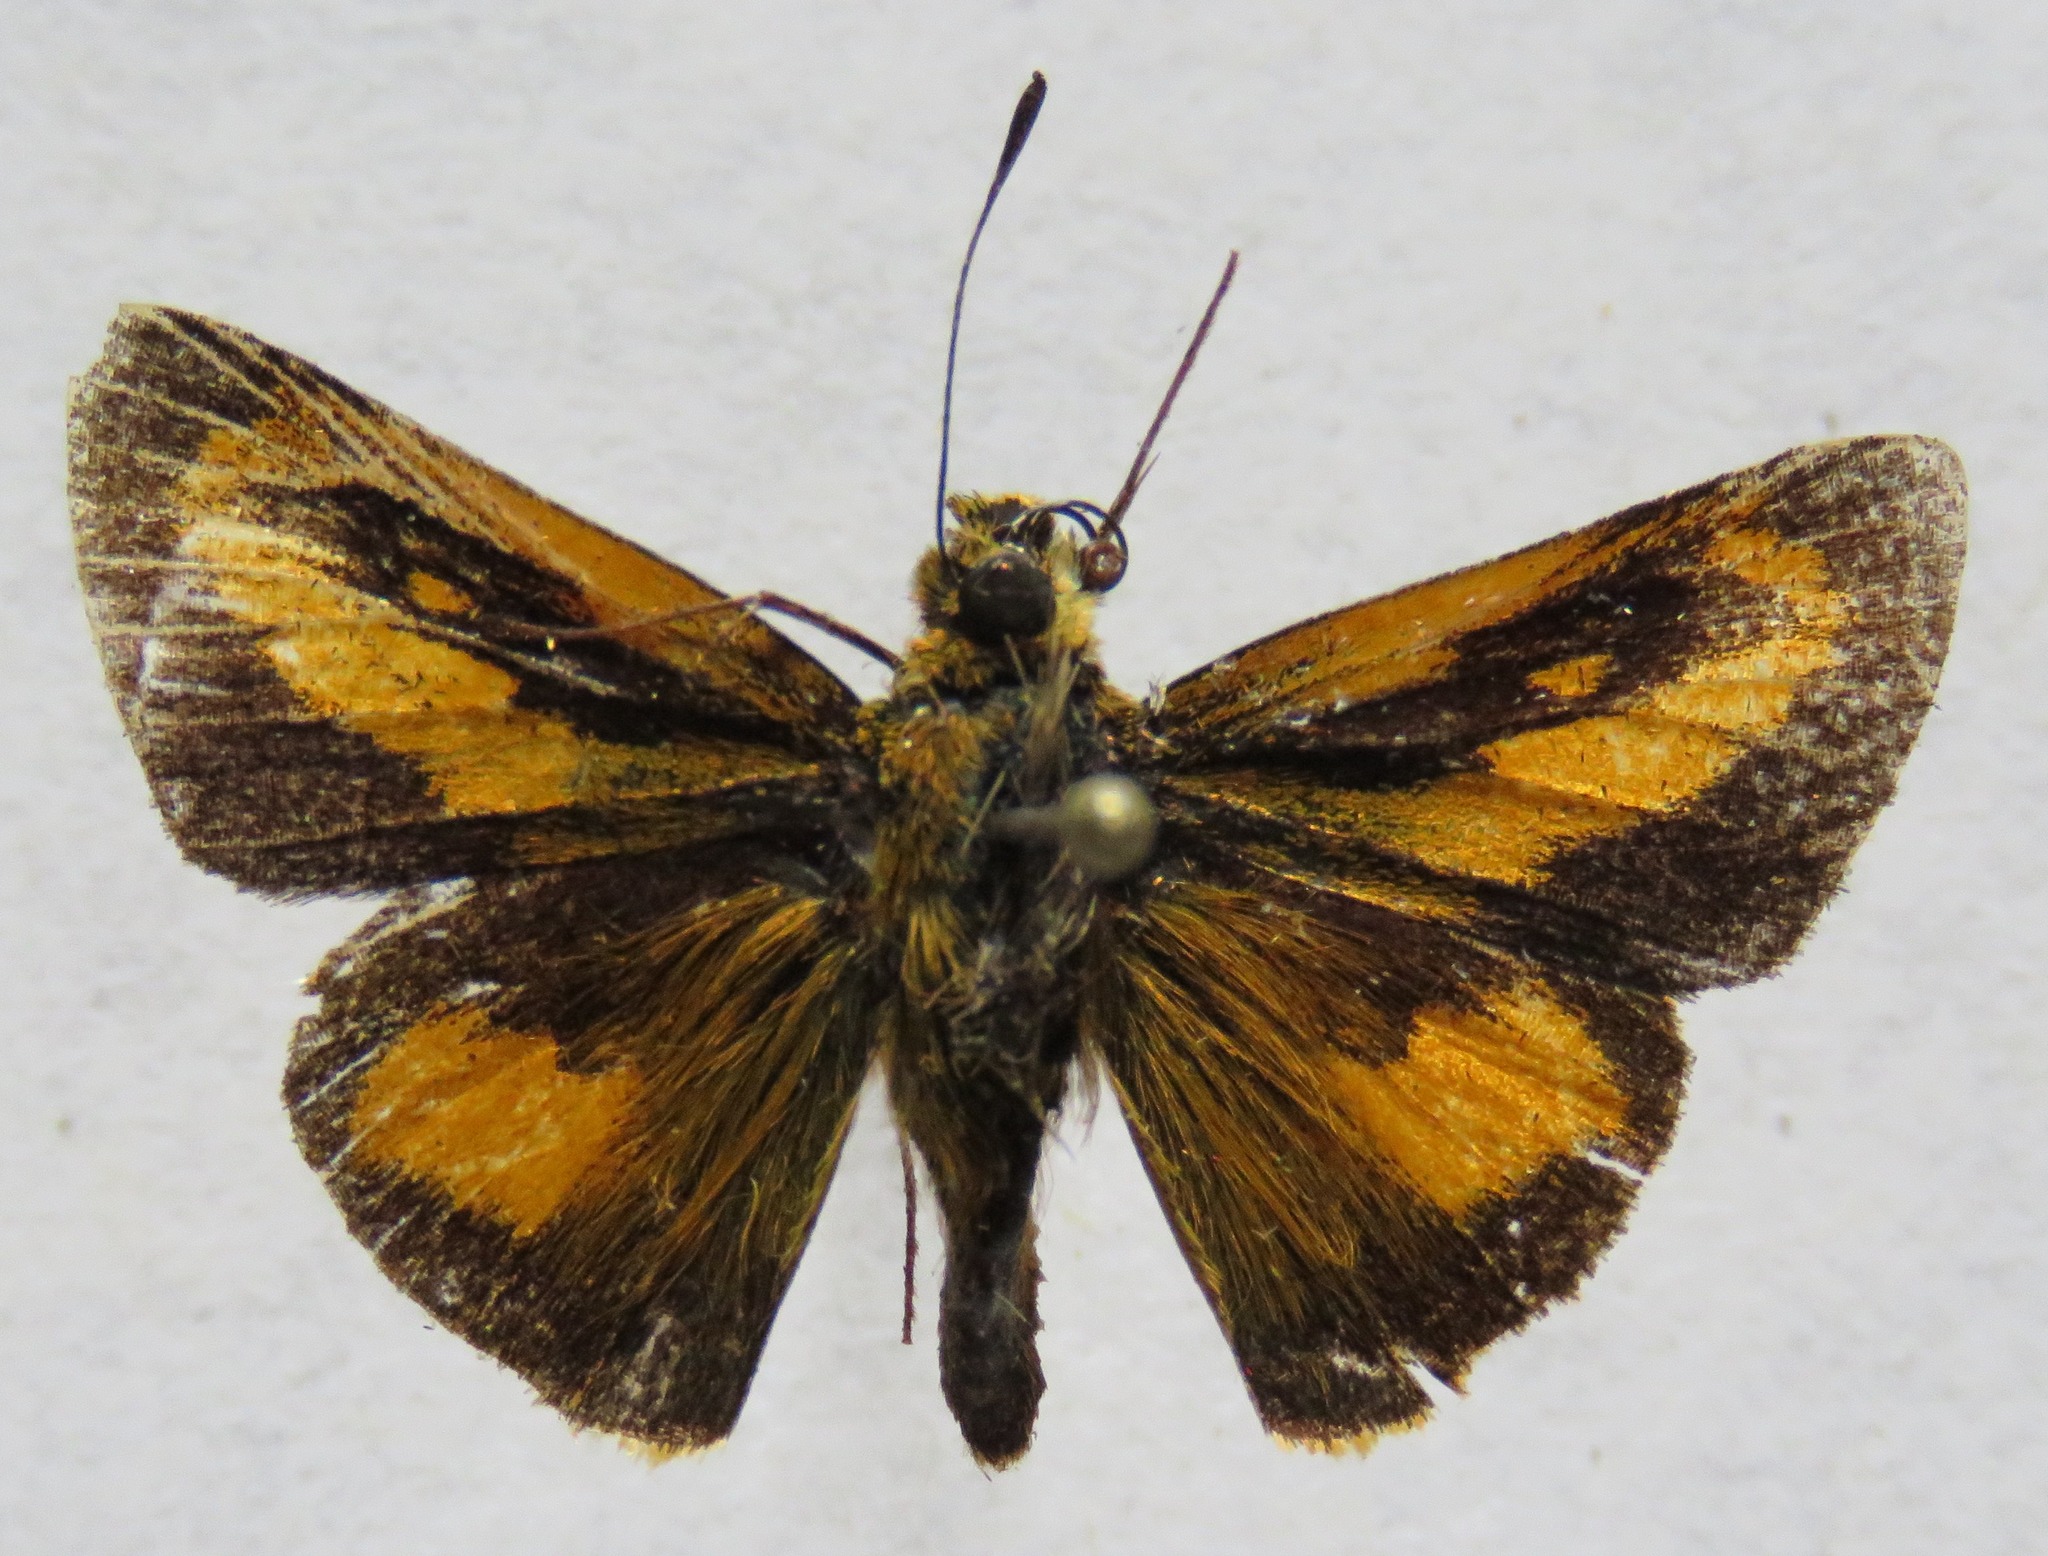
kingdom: Animalia
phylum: Arthropoda
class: Insecta
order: Lepidoptera
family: Hesperiidae
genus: Anthoptus
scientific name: Anthoptus epictetus
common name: Trailside skipper
